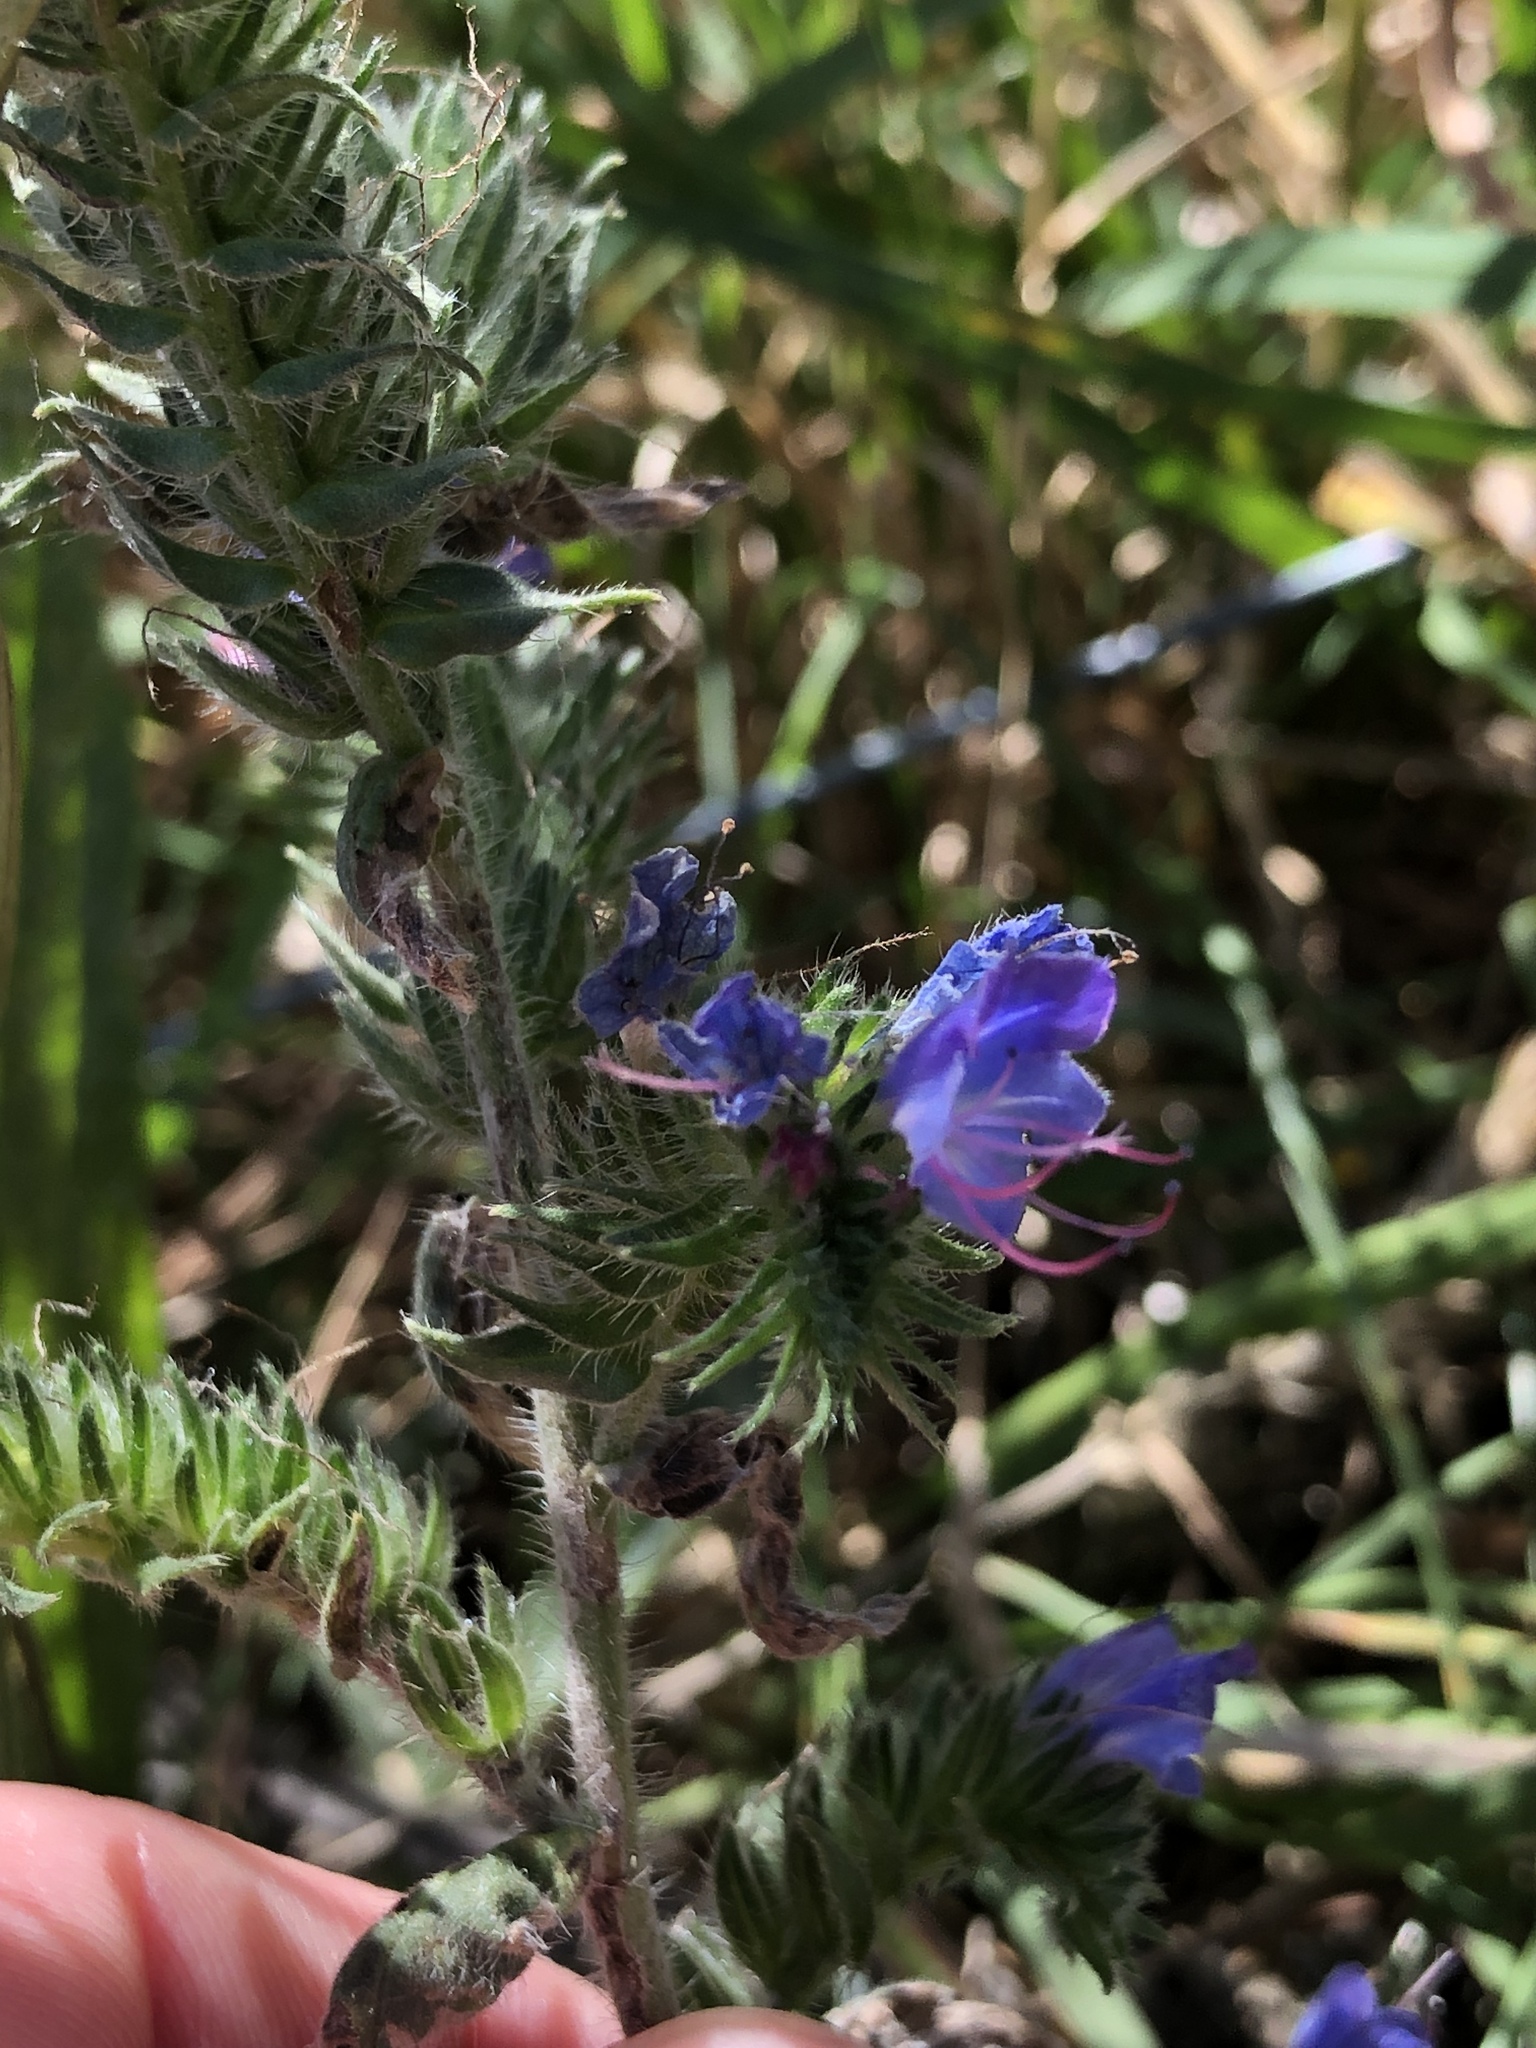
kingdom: Plantae
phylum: Tracheophyta
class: Magnoliopsida
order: Boraginales
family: Boraginaceae
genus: Echium
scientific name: Echium vulgare
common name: Common viper's bugloss
